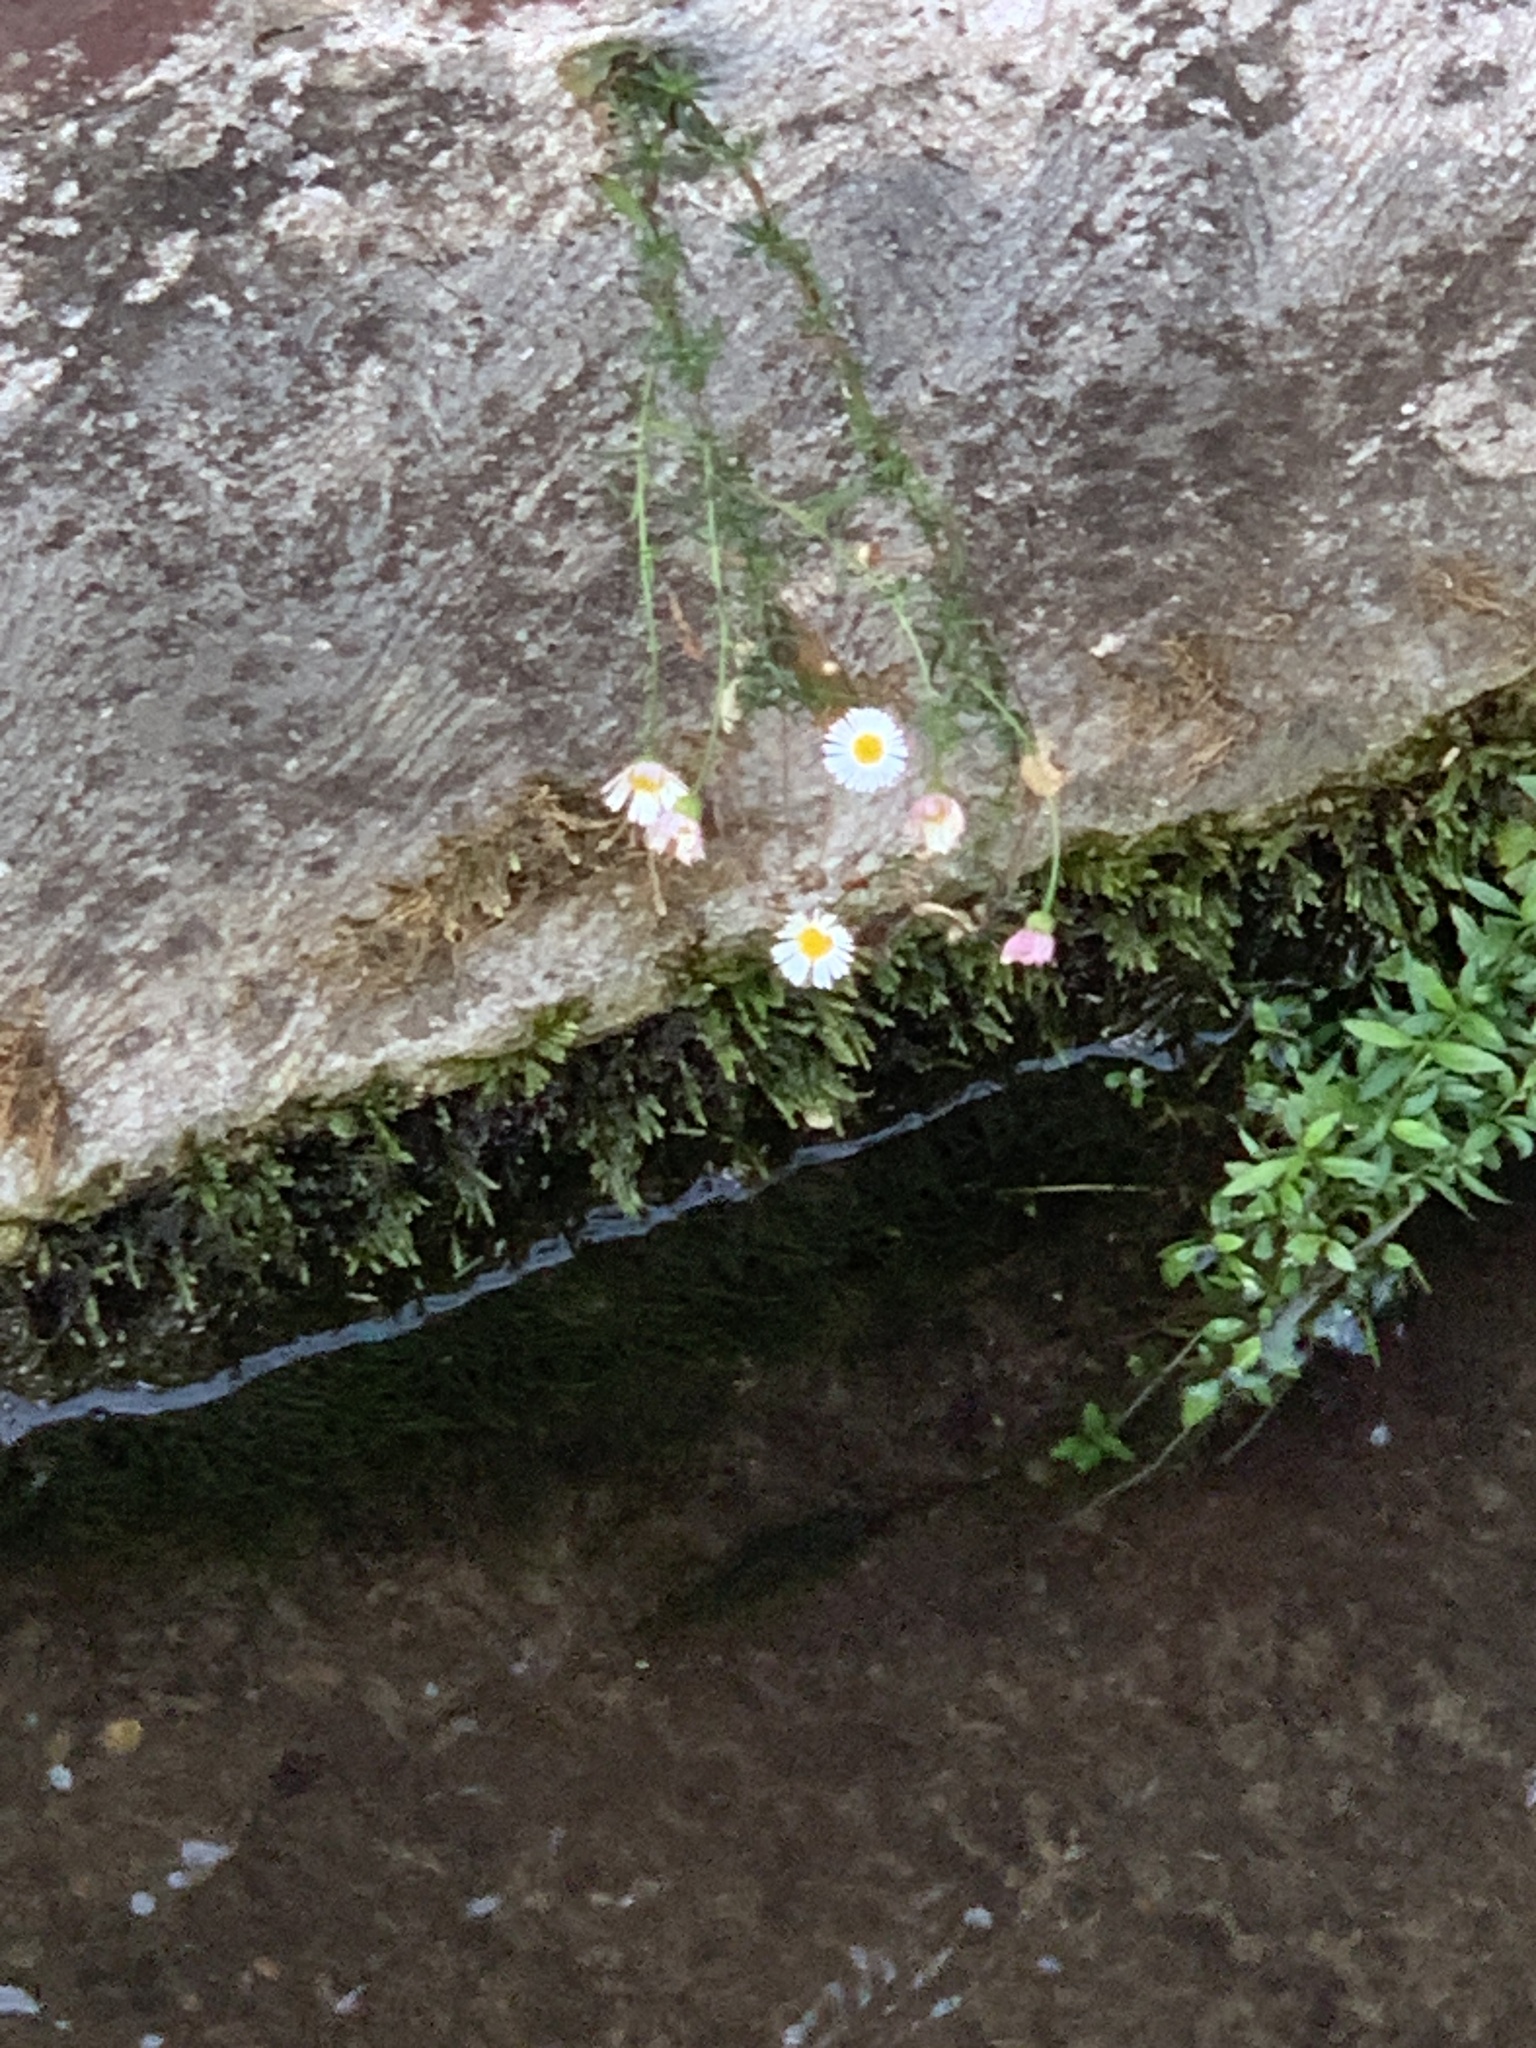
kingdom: Plantae
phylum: Tracheophyta
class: Magnoliopsida
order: Asterales
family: Asteraceae
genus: Erigeron
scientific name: Erigeron karvinskianus
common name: Mexican fleabane
